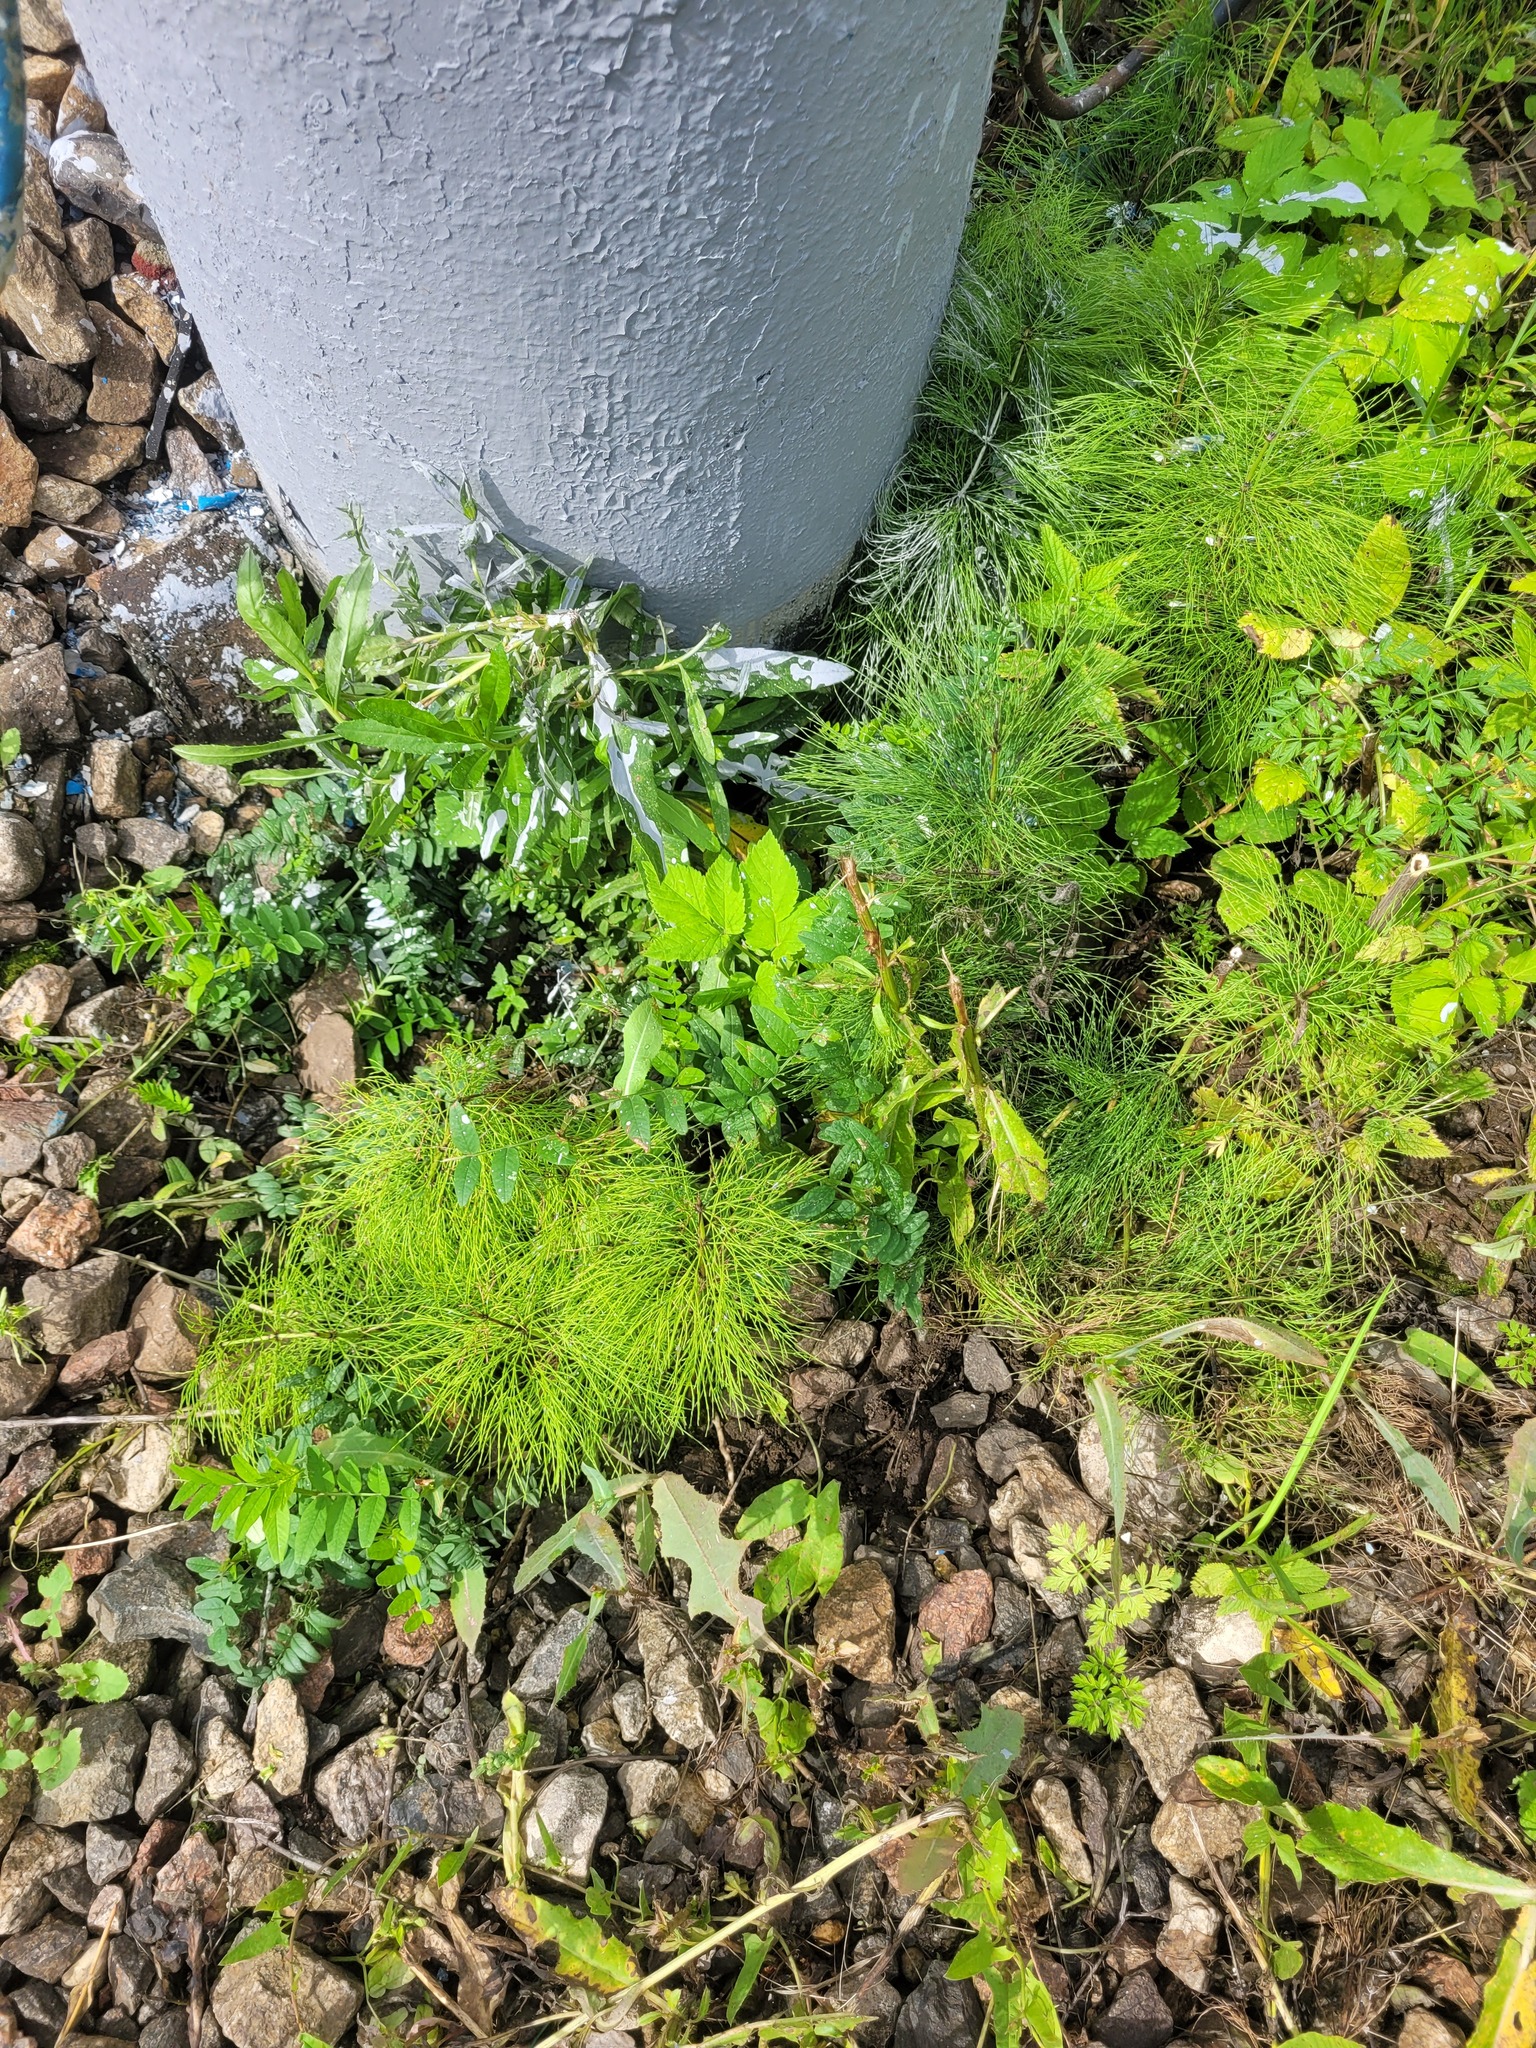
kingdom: Plantae
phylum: Tracheophyta
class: Magnoliopsida
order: Fabales
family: Fabaceae
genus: Vicia
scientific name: Vicia sepium
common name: Bush vetch
